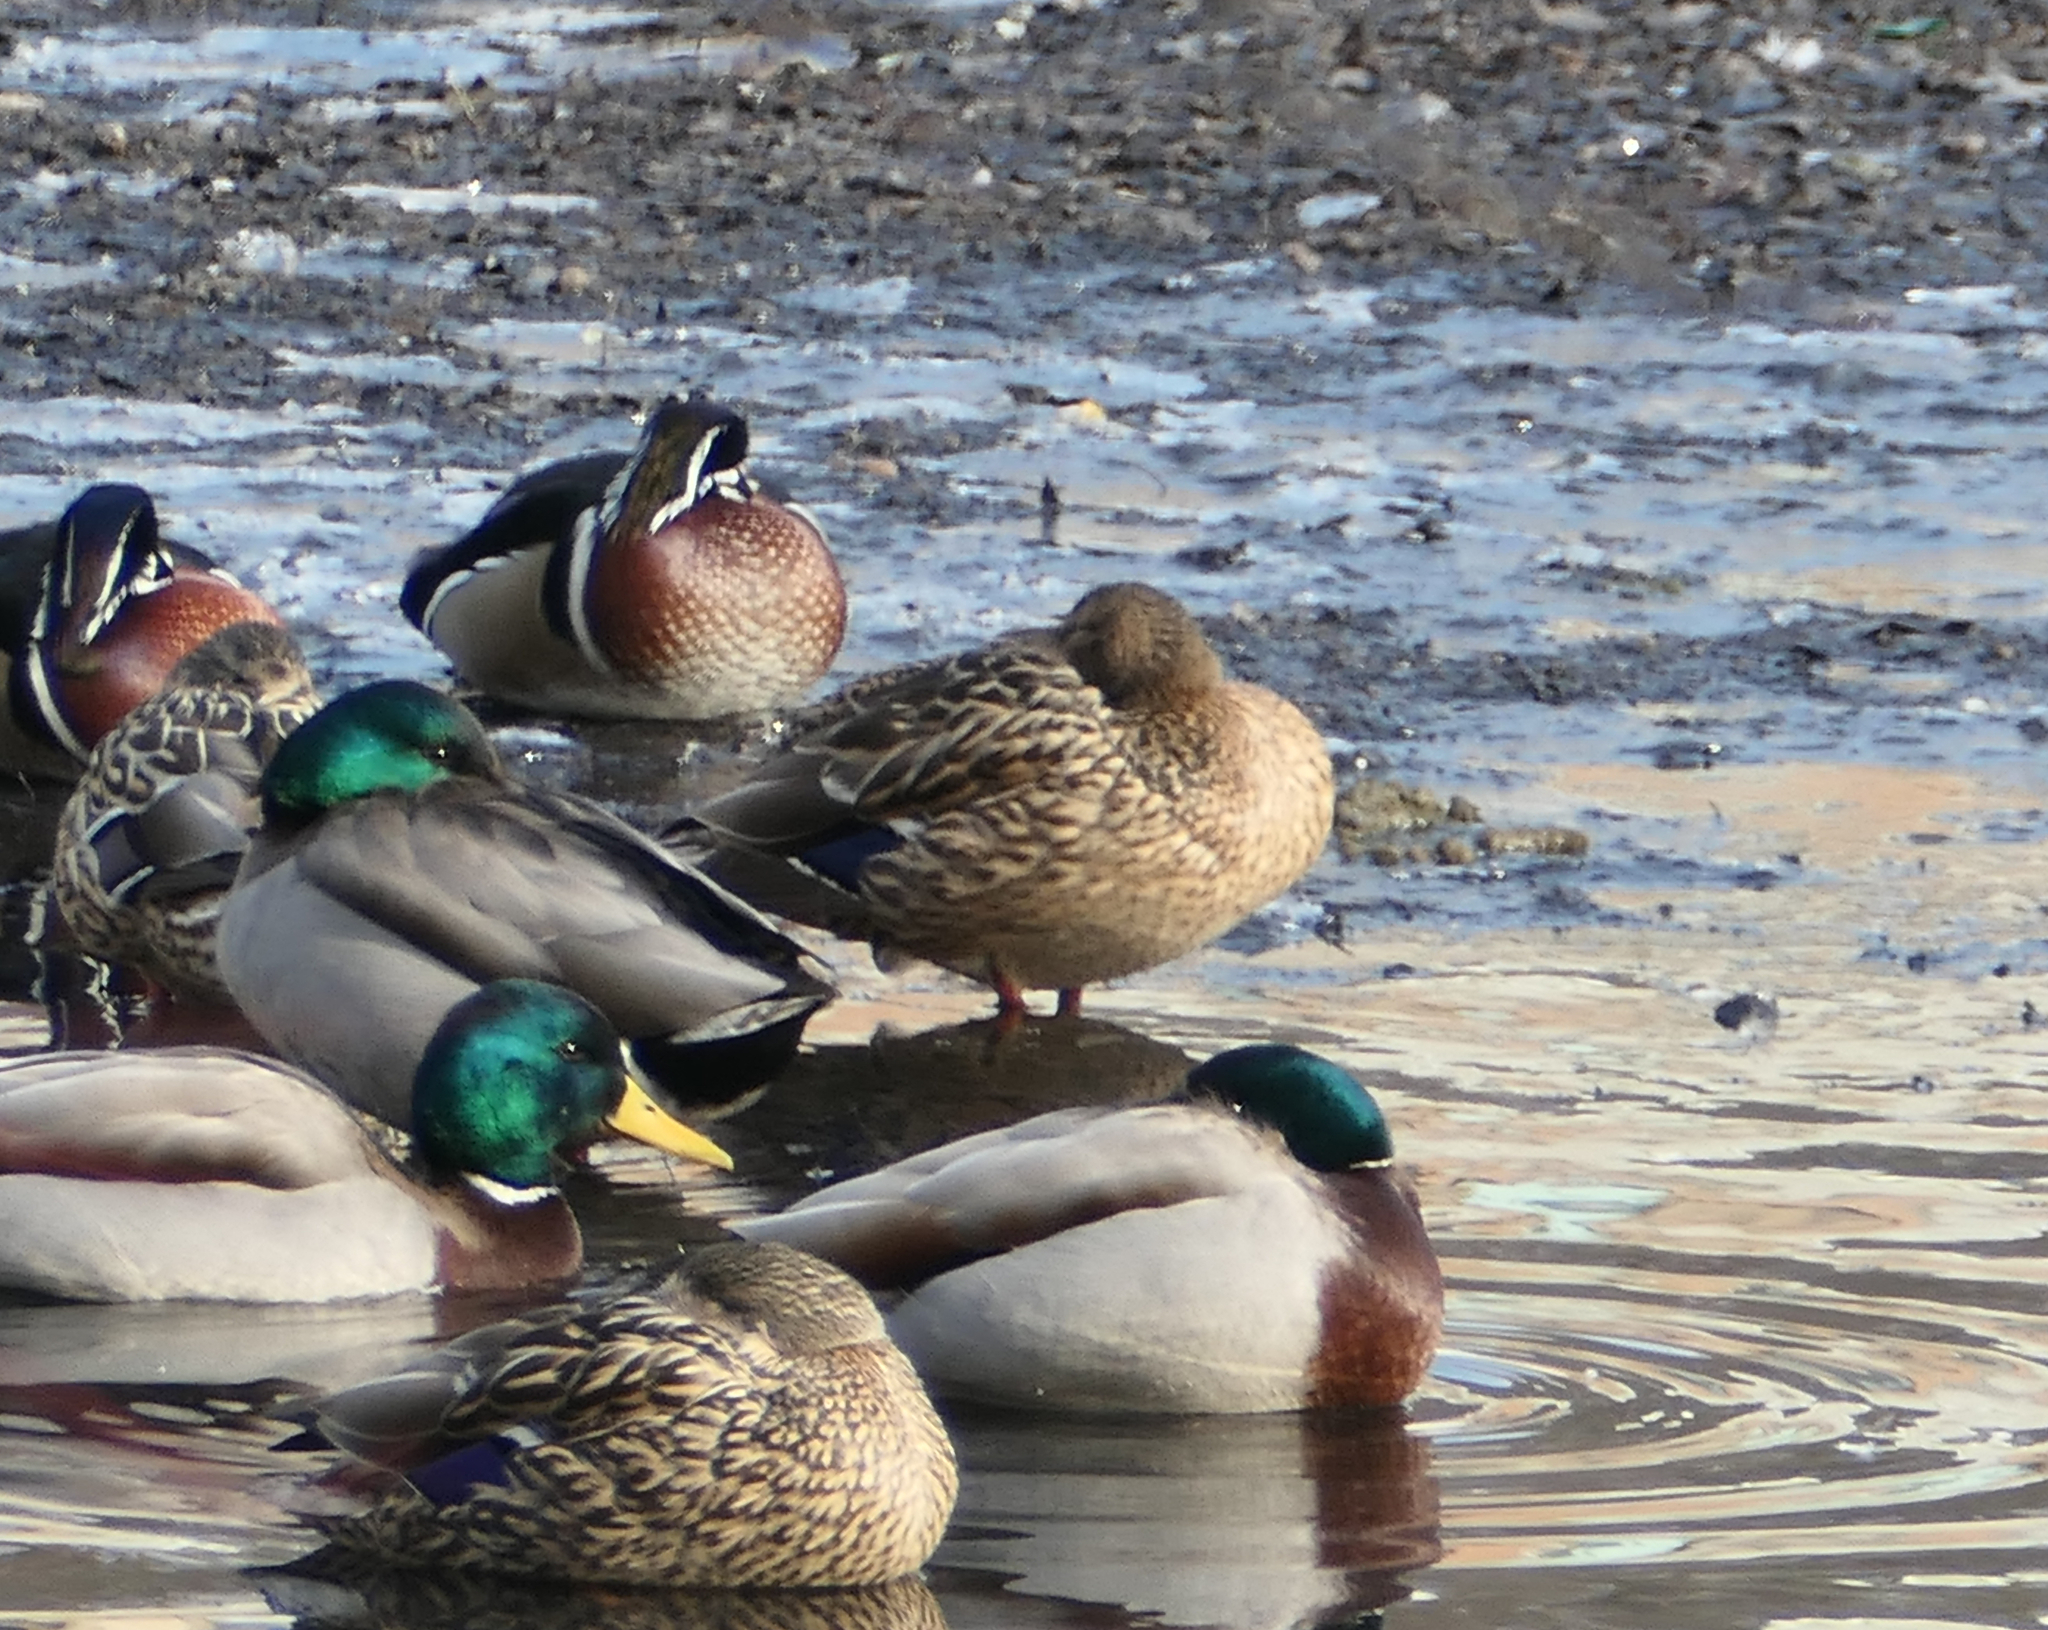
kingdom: Animalia
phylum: Chordata
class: Aves
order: Anseriformes
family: Anatidae
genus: Aix
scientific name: Aix sponsa
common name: Wood duck
